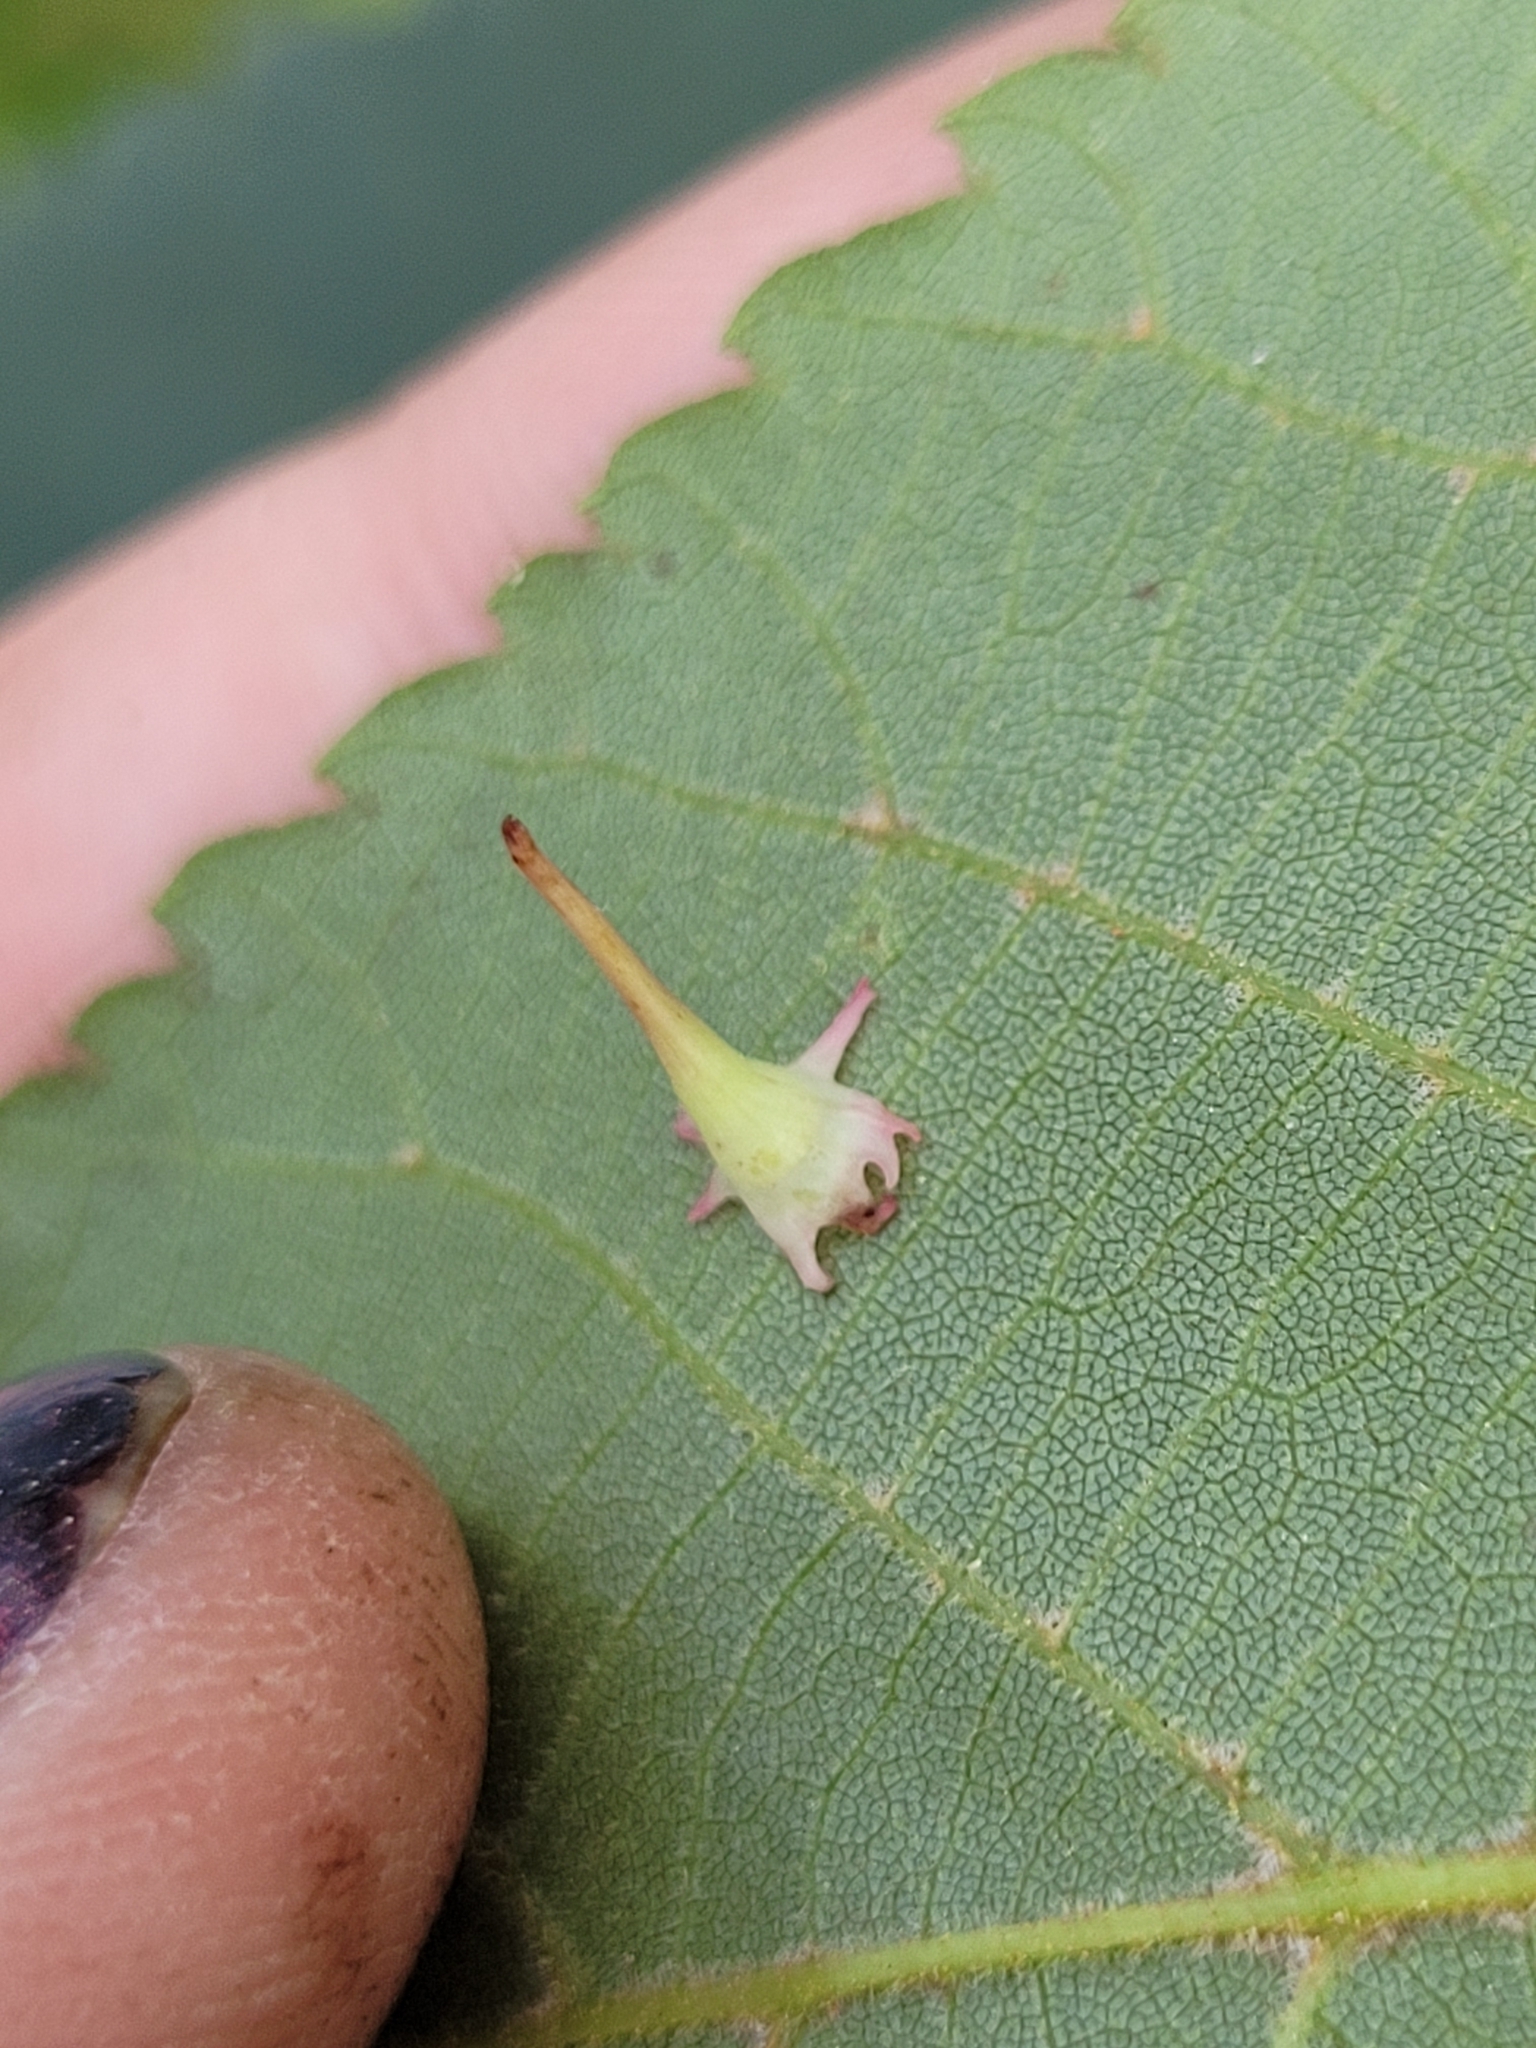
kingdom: Animalia
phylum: Arthropoda
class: Insecta
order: Diptera
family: Cecidomyiidae
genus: Caryomyia
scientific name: Caryomyia stellata
